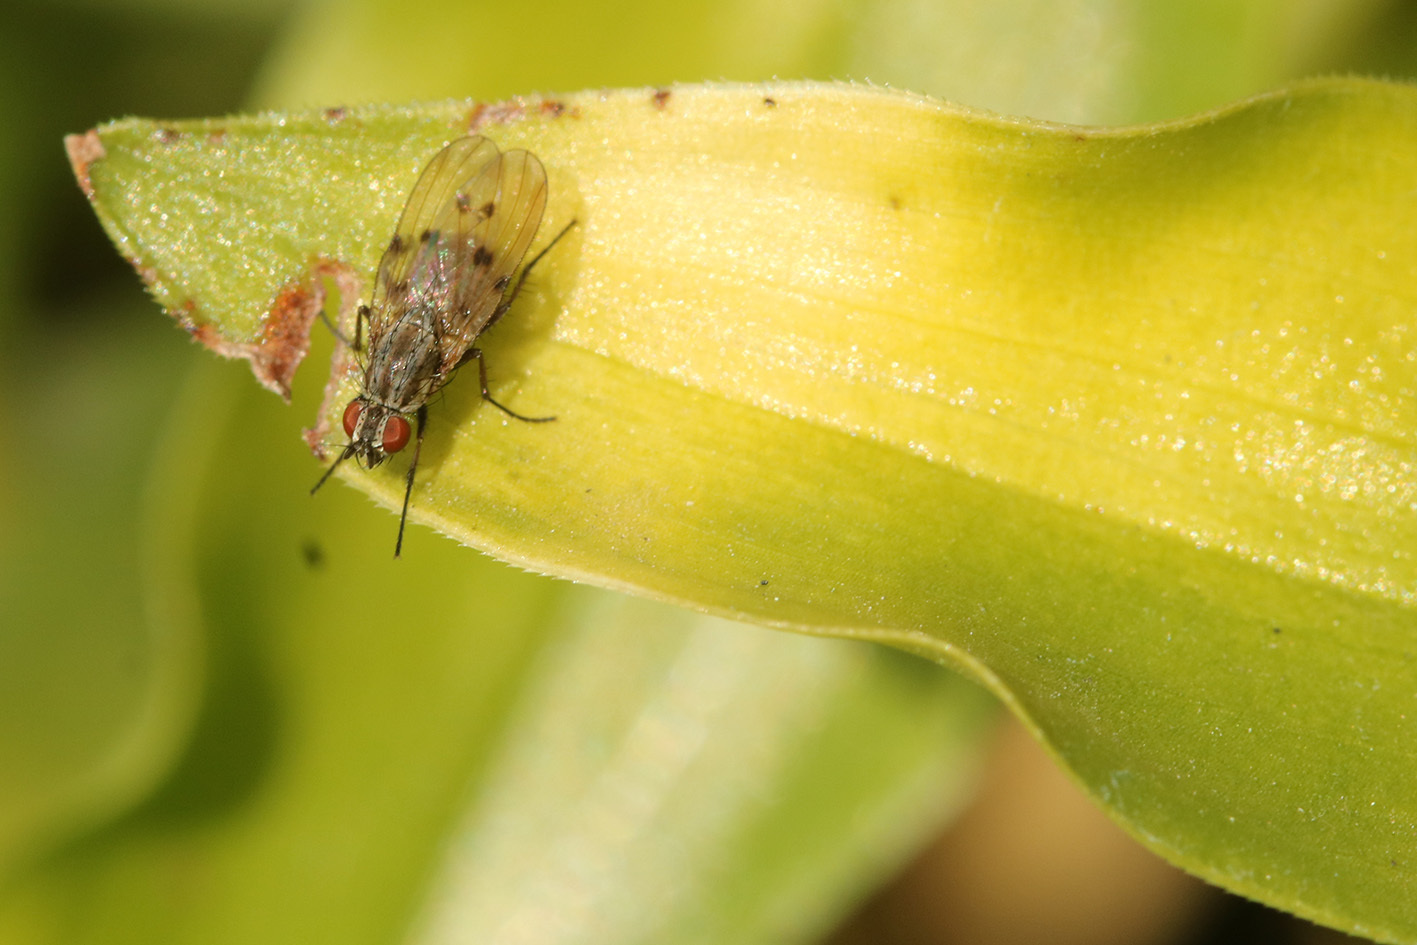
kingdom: Animalia
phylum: Arthropoda
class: Insecta
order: Diptera
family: Anthomyiidae
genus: Anthomyia
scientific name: Anthomyia punctipennis
